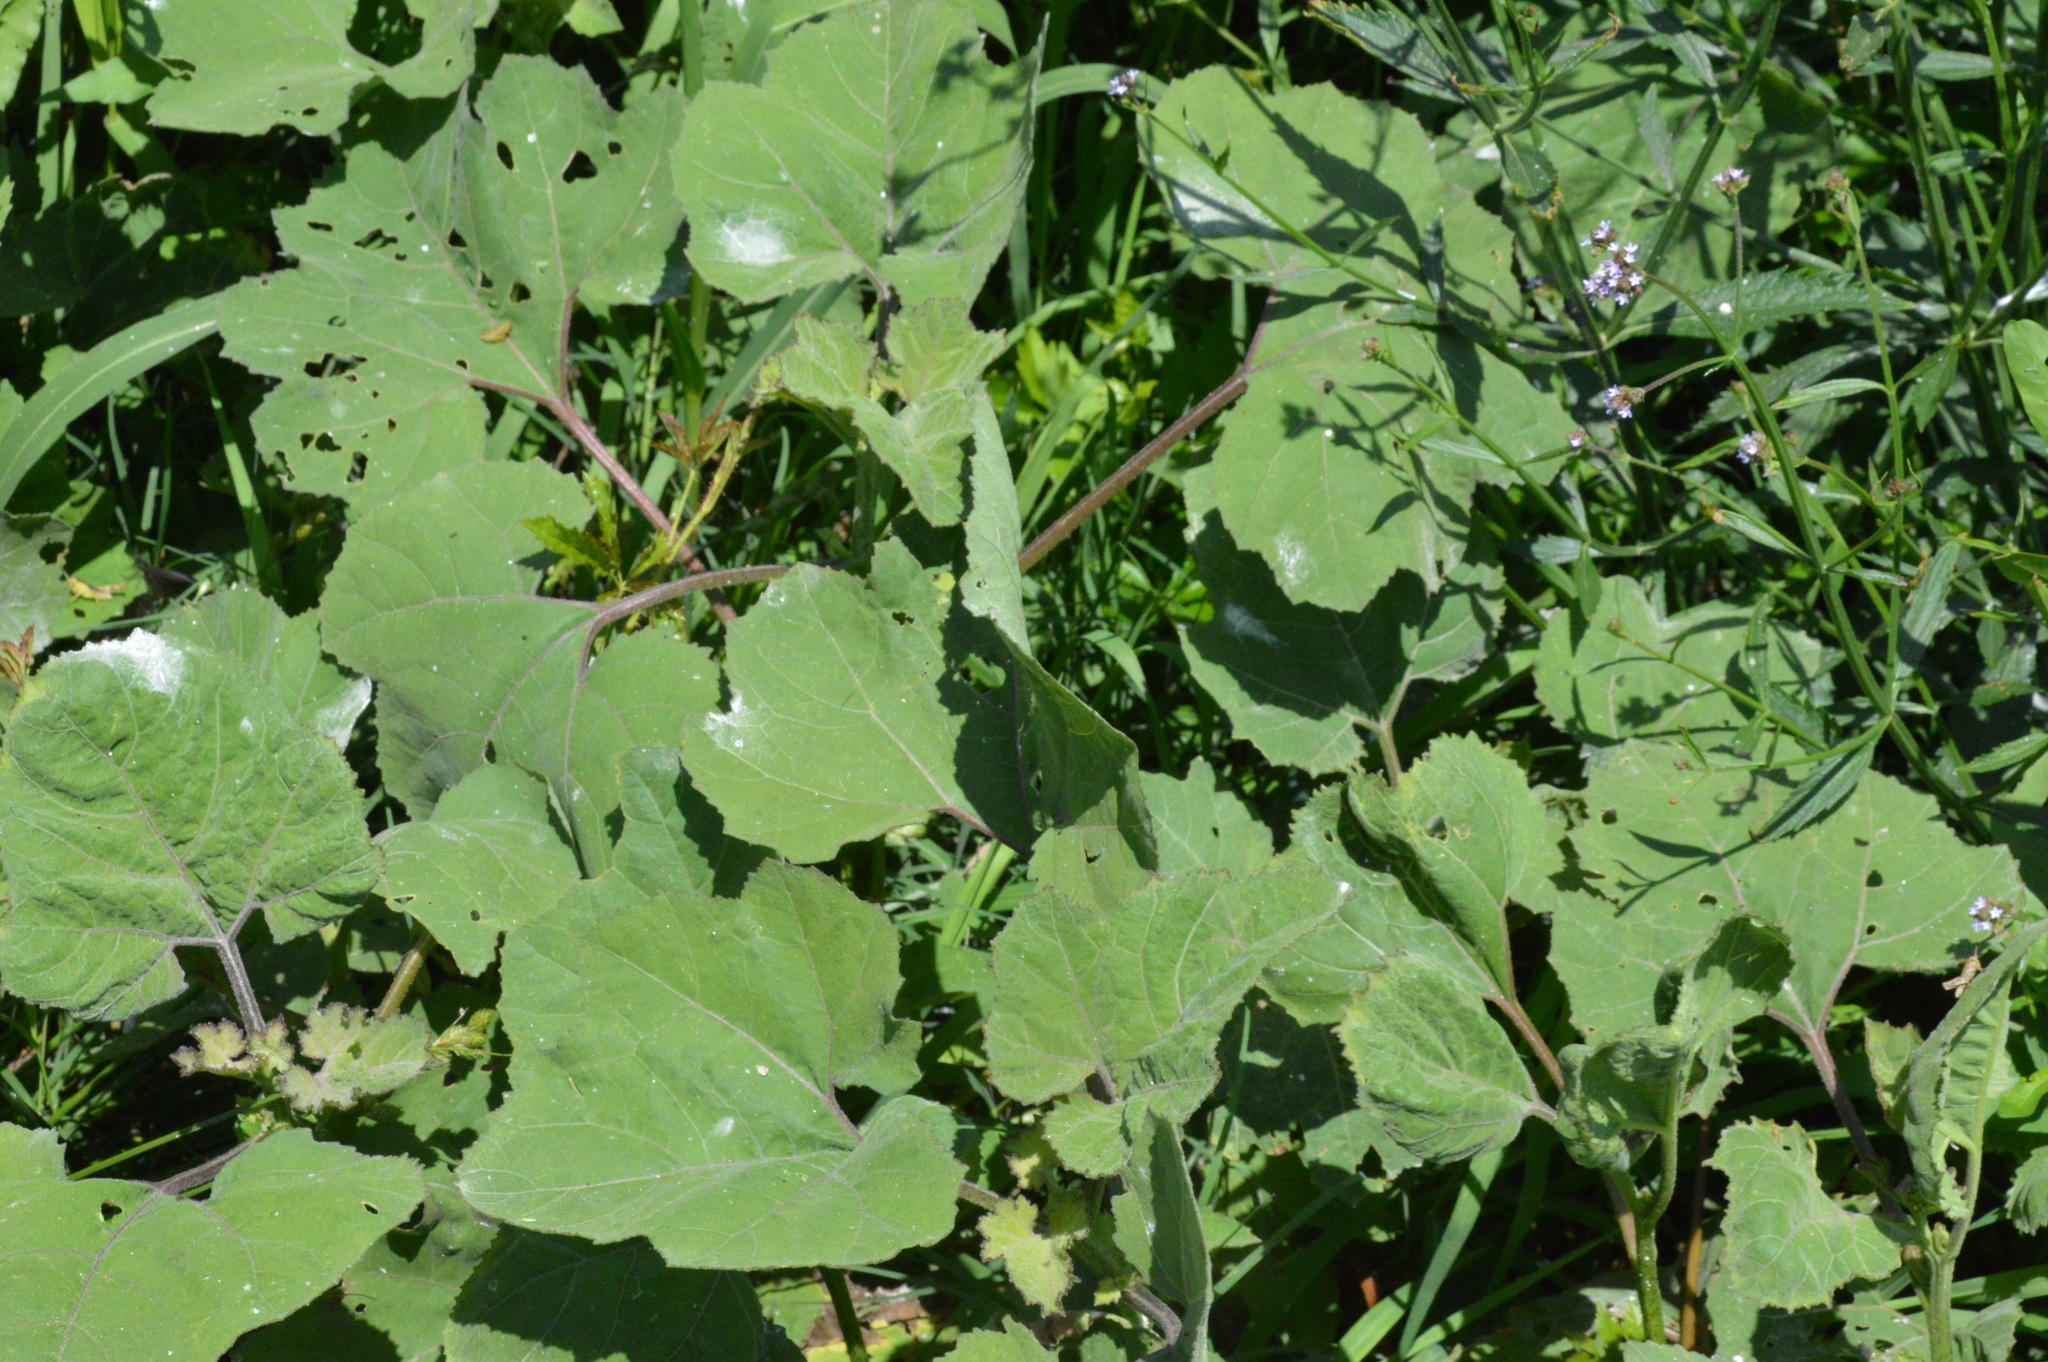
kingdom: Plantae
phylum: Tracheophyta
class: Magnoliopsida
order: Asterales
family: Asteraceae
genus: Xanthium
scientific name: Xanthium strumarium
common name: Rough cocklebur
